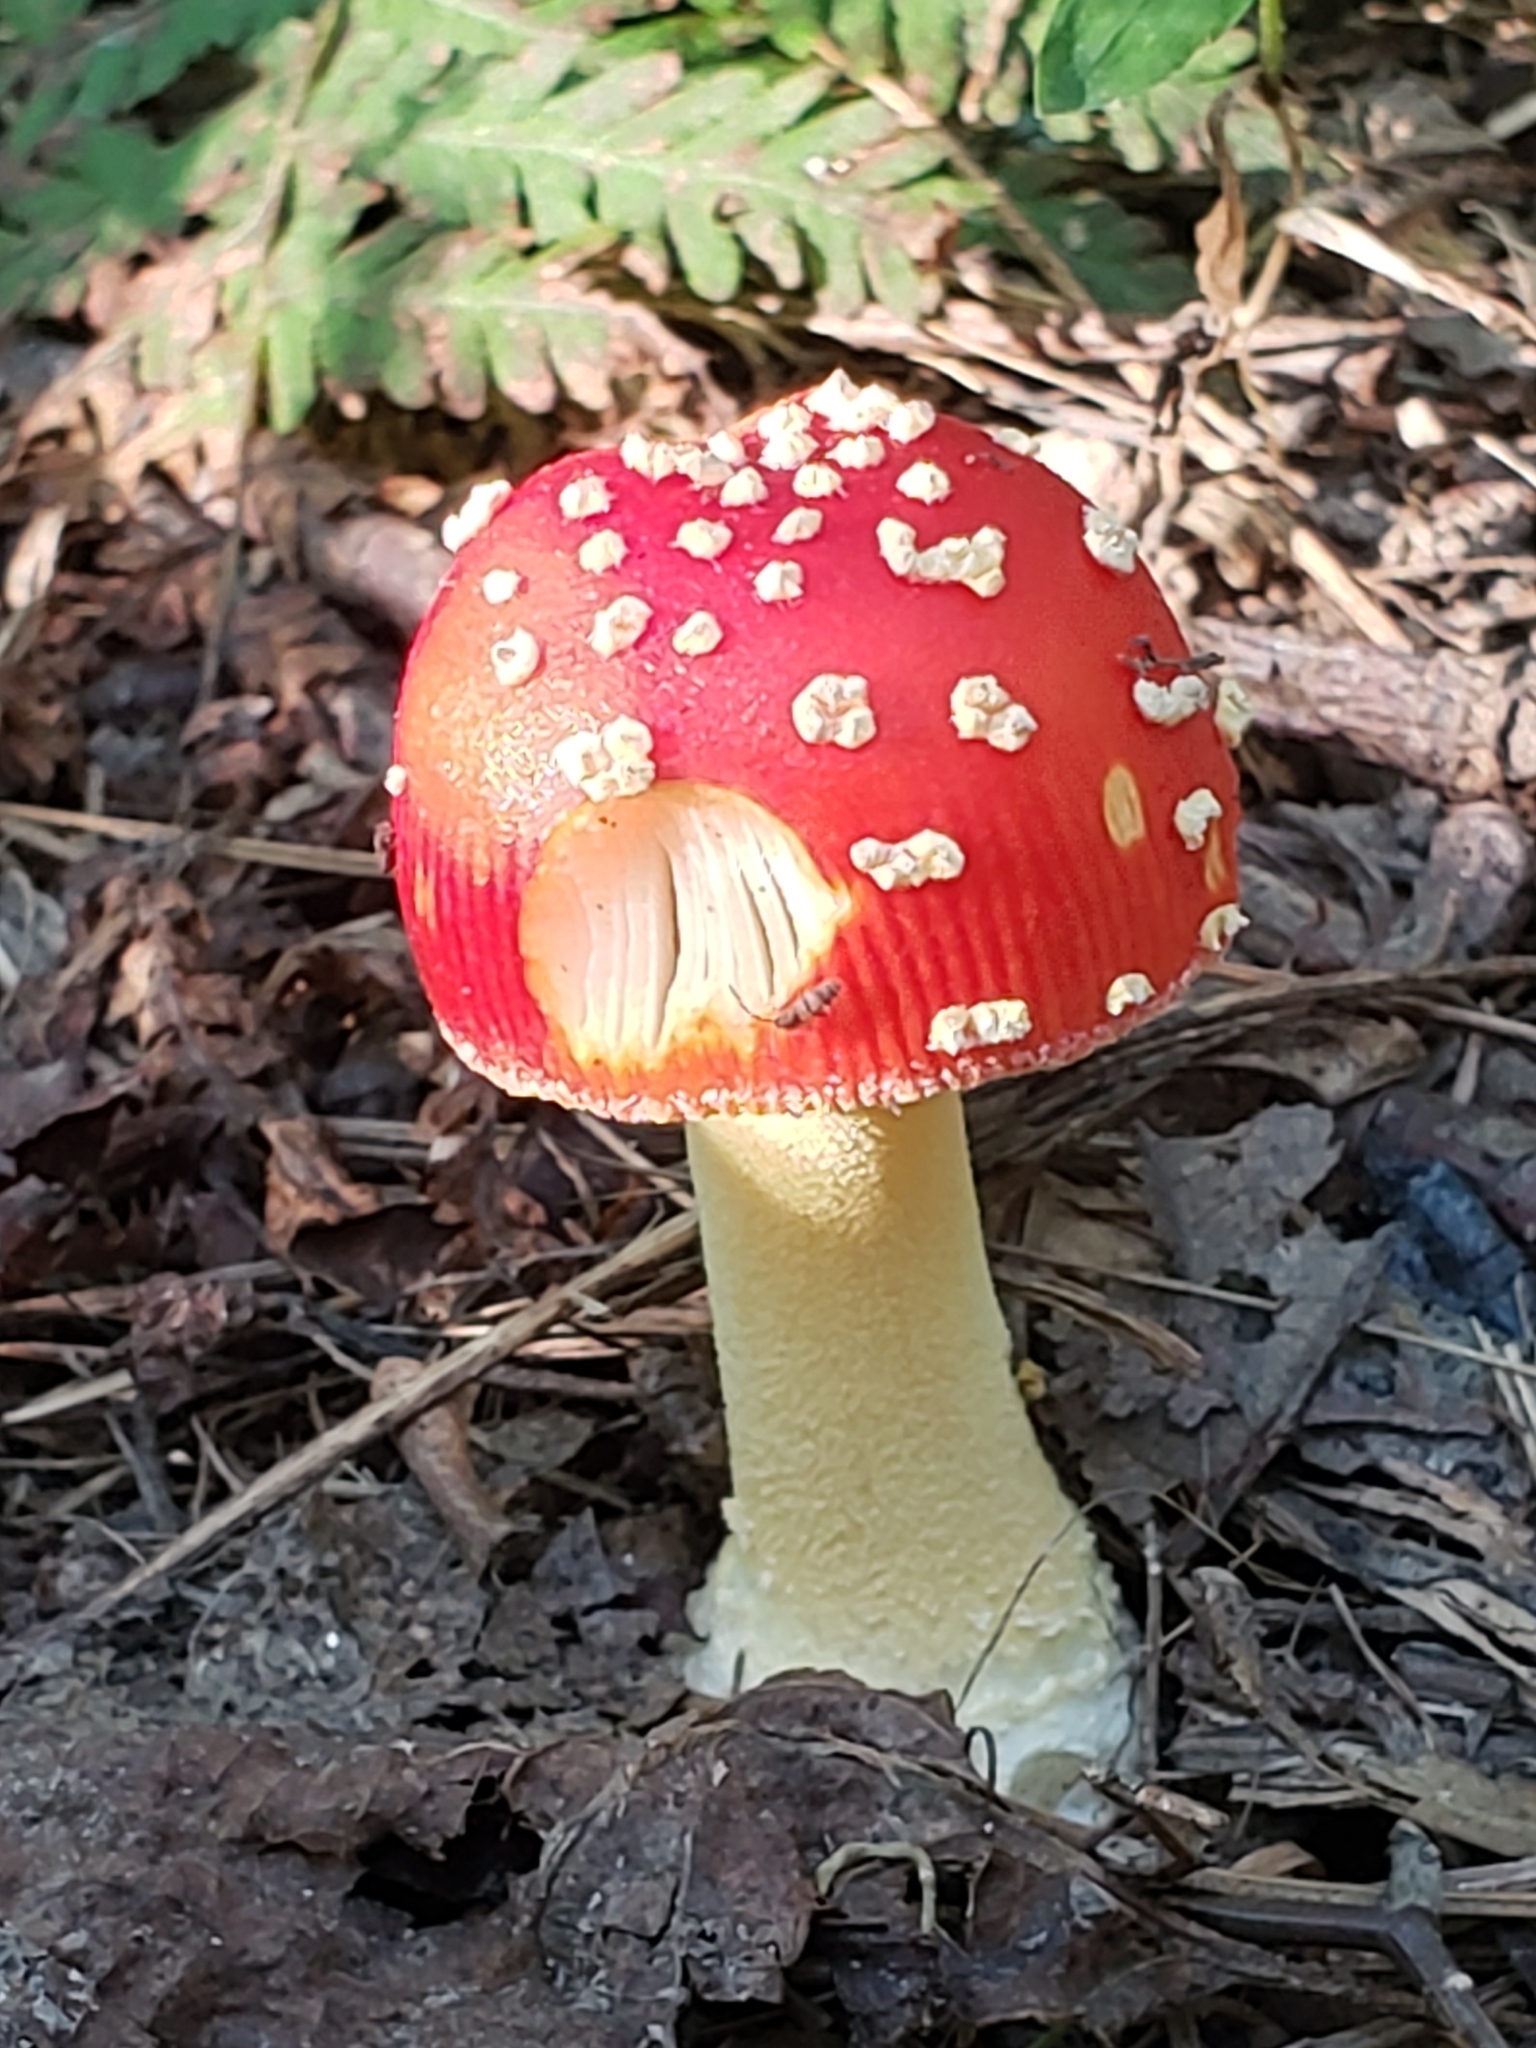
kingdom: Fungi
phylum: Basidiomycota
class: Agaricomycetes
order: Agaricales
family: Amanitaceae
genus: Amanita
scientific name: Amanita parcivolvata
